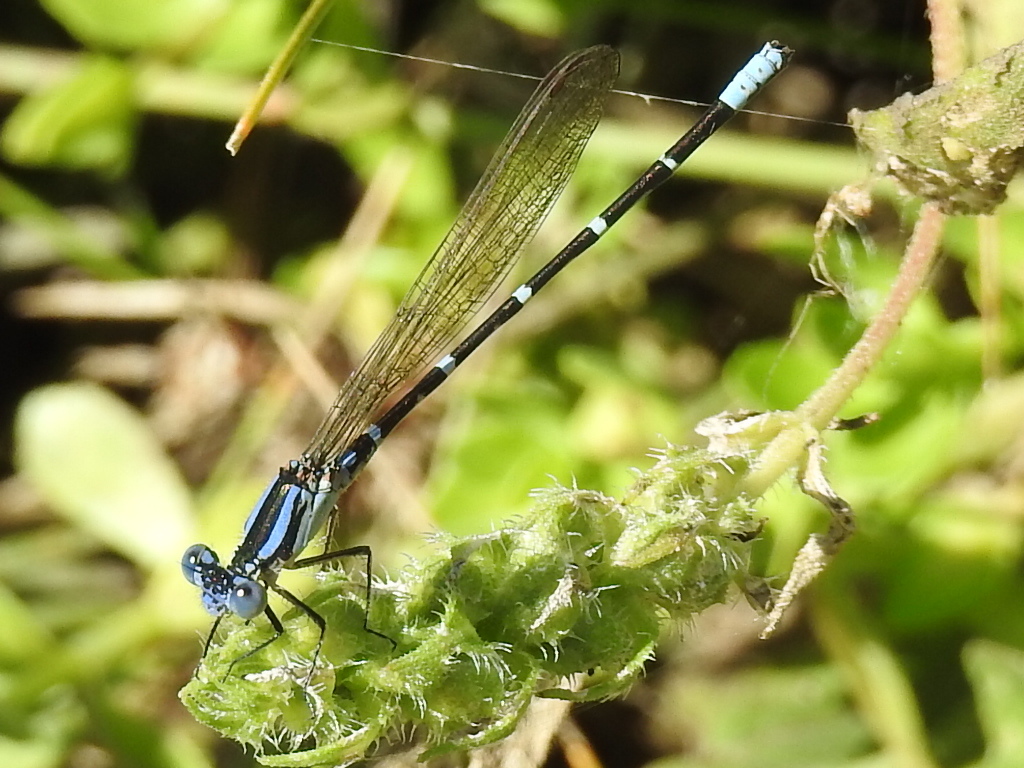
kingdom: Animalia
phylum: Arthropoda
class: Insecta
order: Odonata
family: Coenagrionidae
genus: Argia
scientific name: Argia sedula
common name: Blue-ringed dancer
